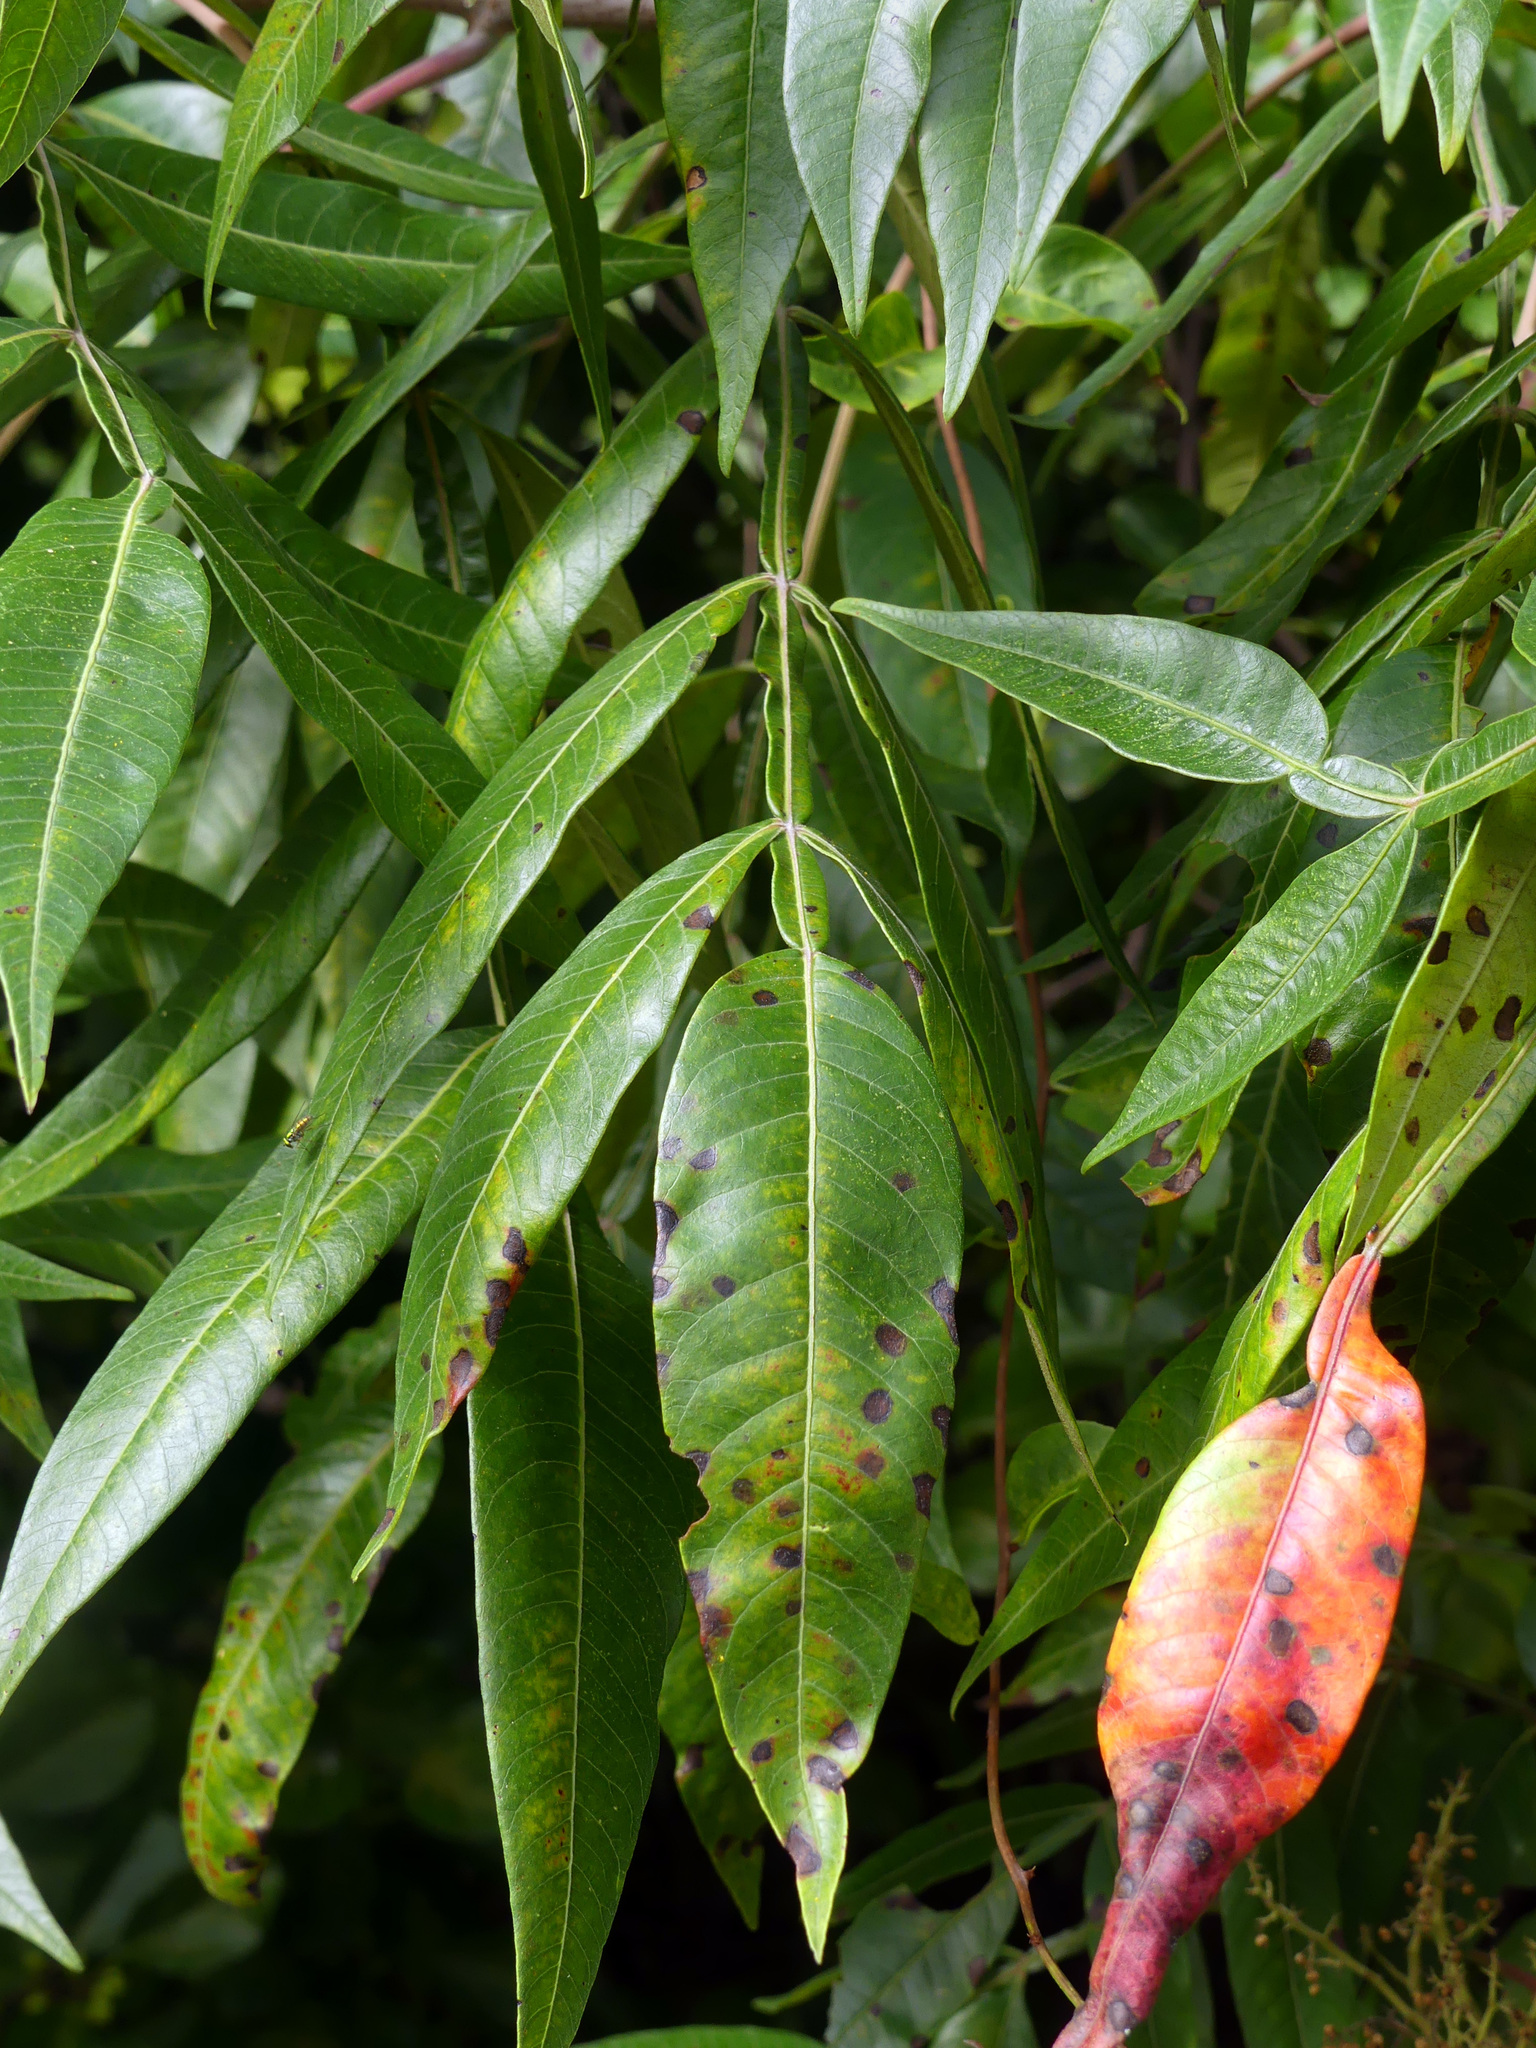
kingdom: Plantae
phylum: Tracheophyta
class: Magnoliopsida
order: Sapindales
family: Anacardiaceae
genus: Rhus
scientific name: Rhus copallina
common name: Shining sumac
